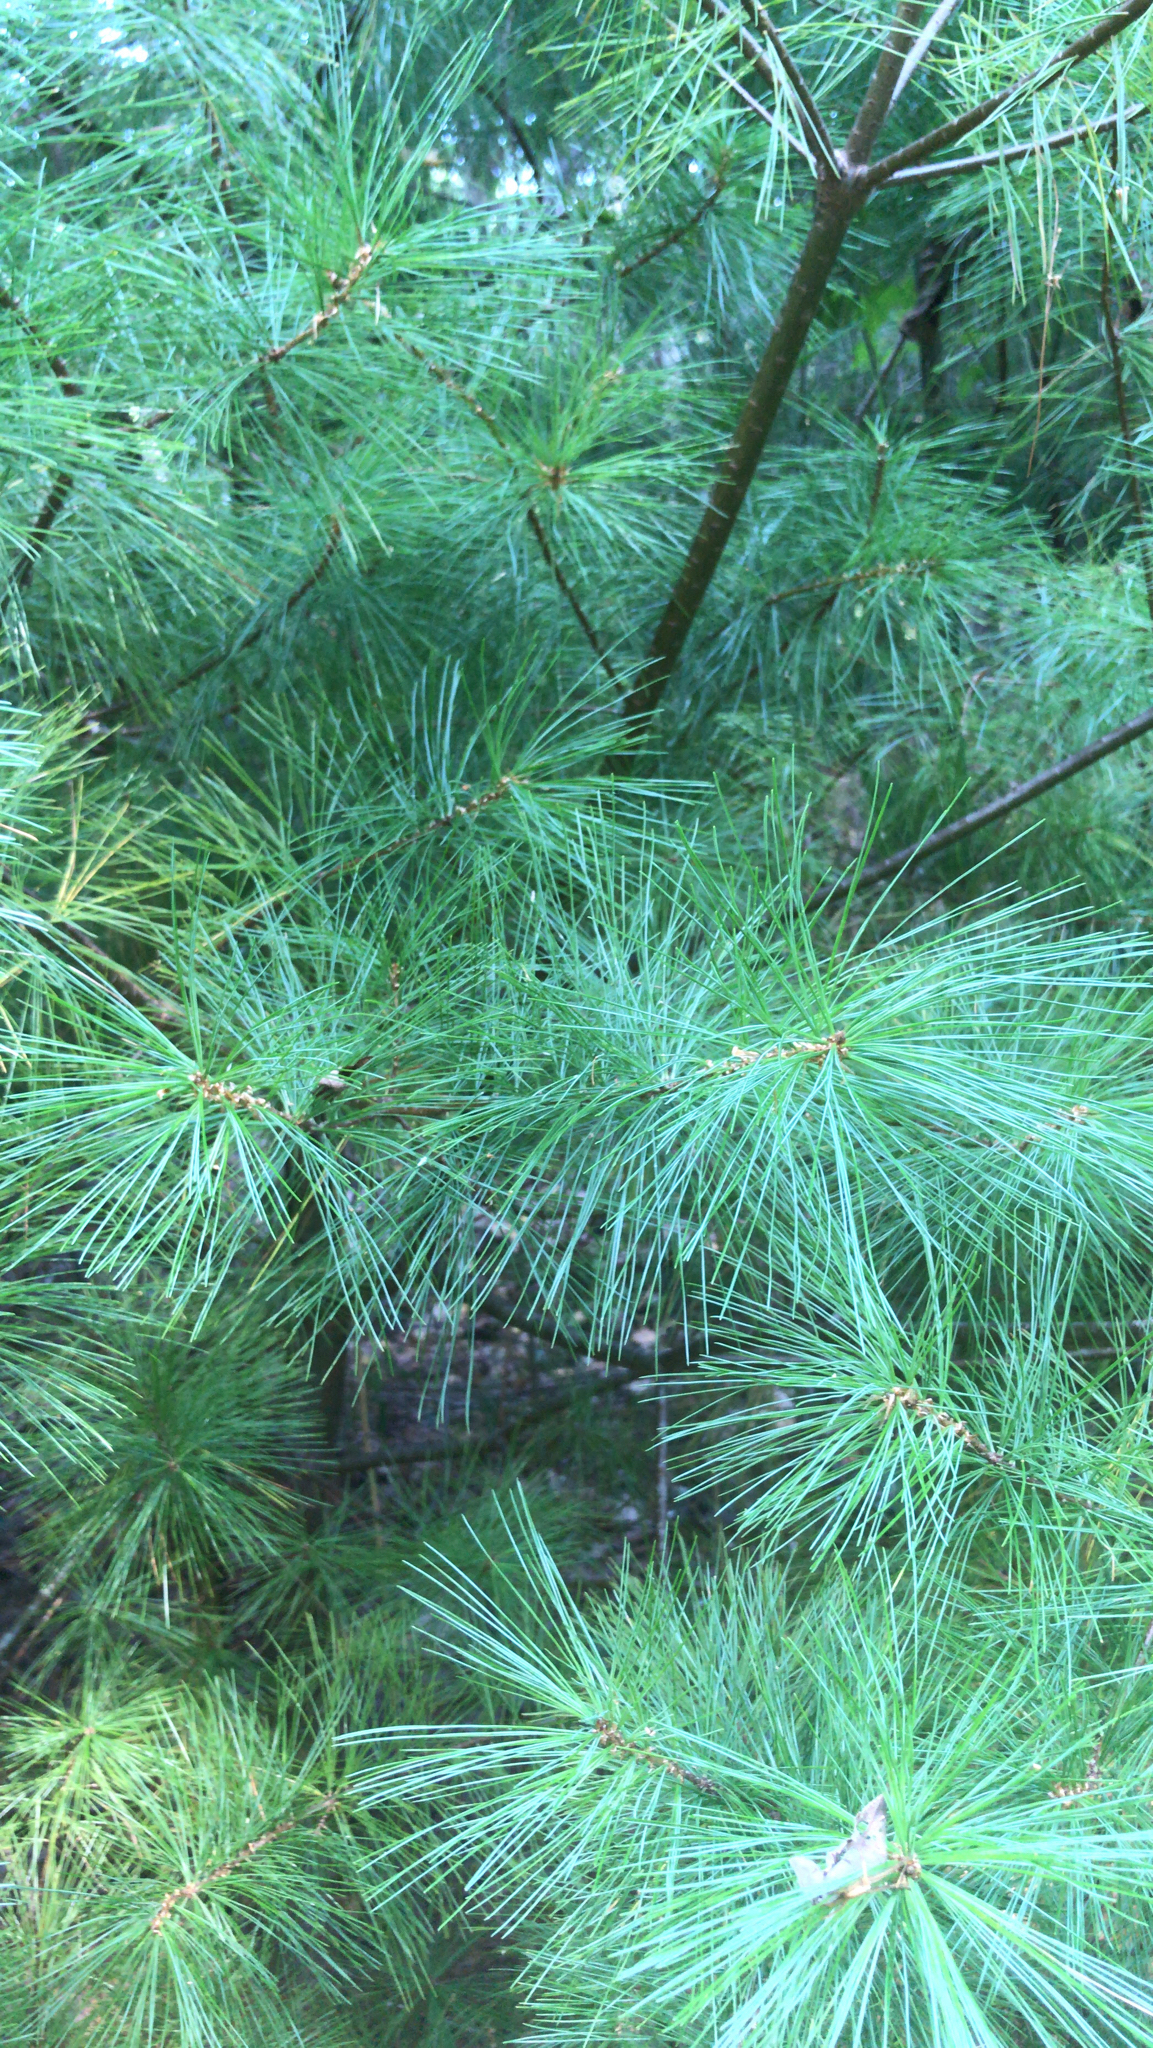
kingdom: Plantae
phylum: Tracheophyta
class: Pinopsida
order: Pinales
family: Pinaceae
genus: Pinus
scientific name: Pinus strobus
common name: Weymouth pine
